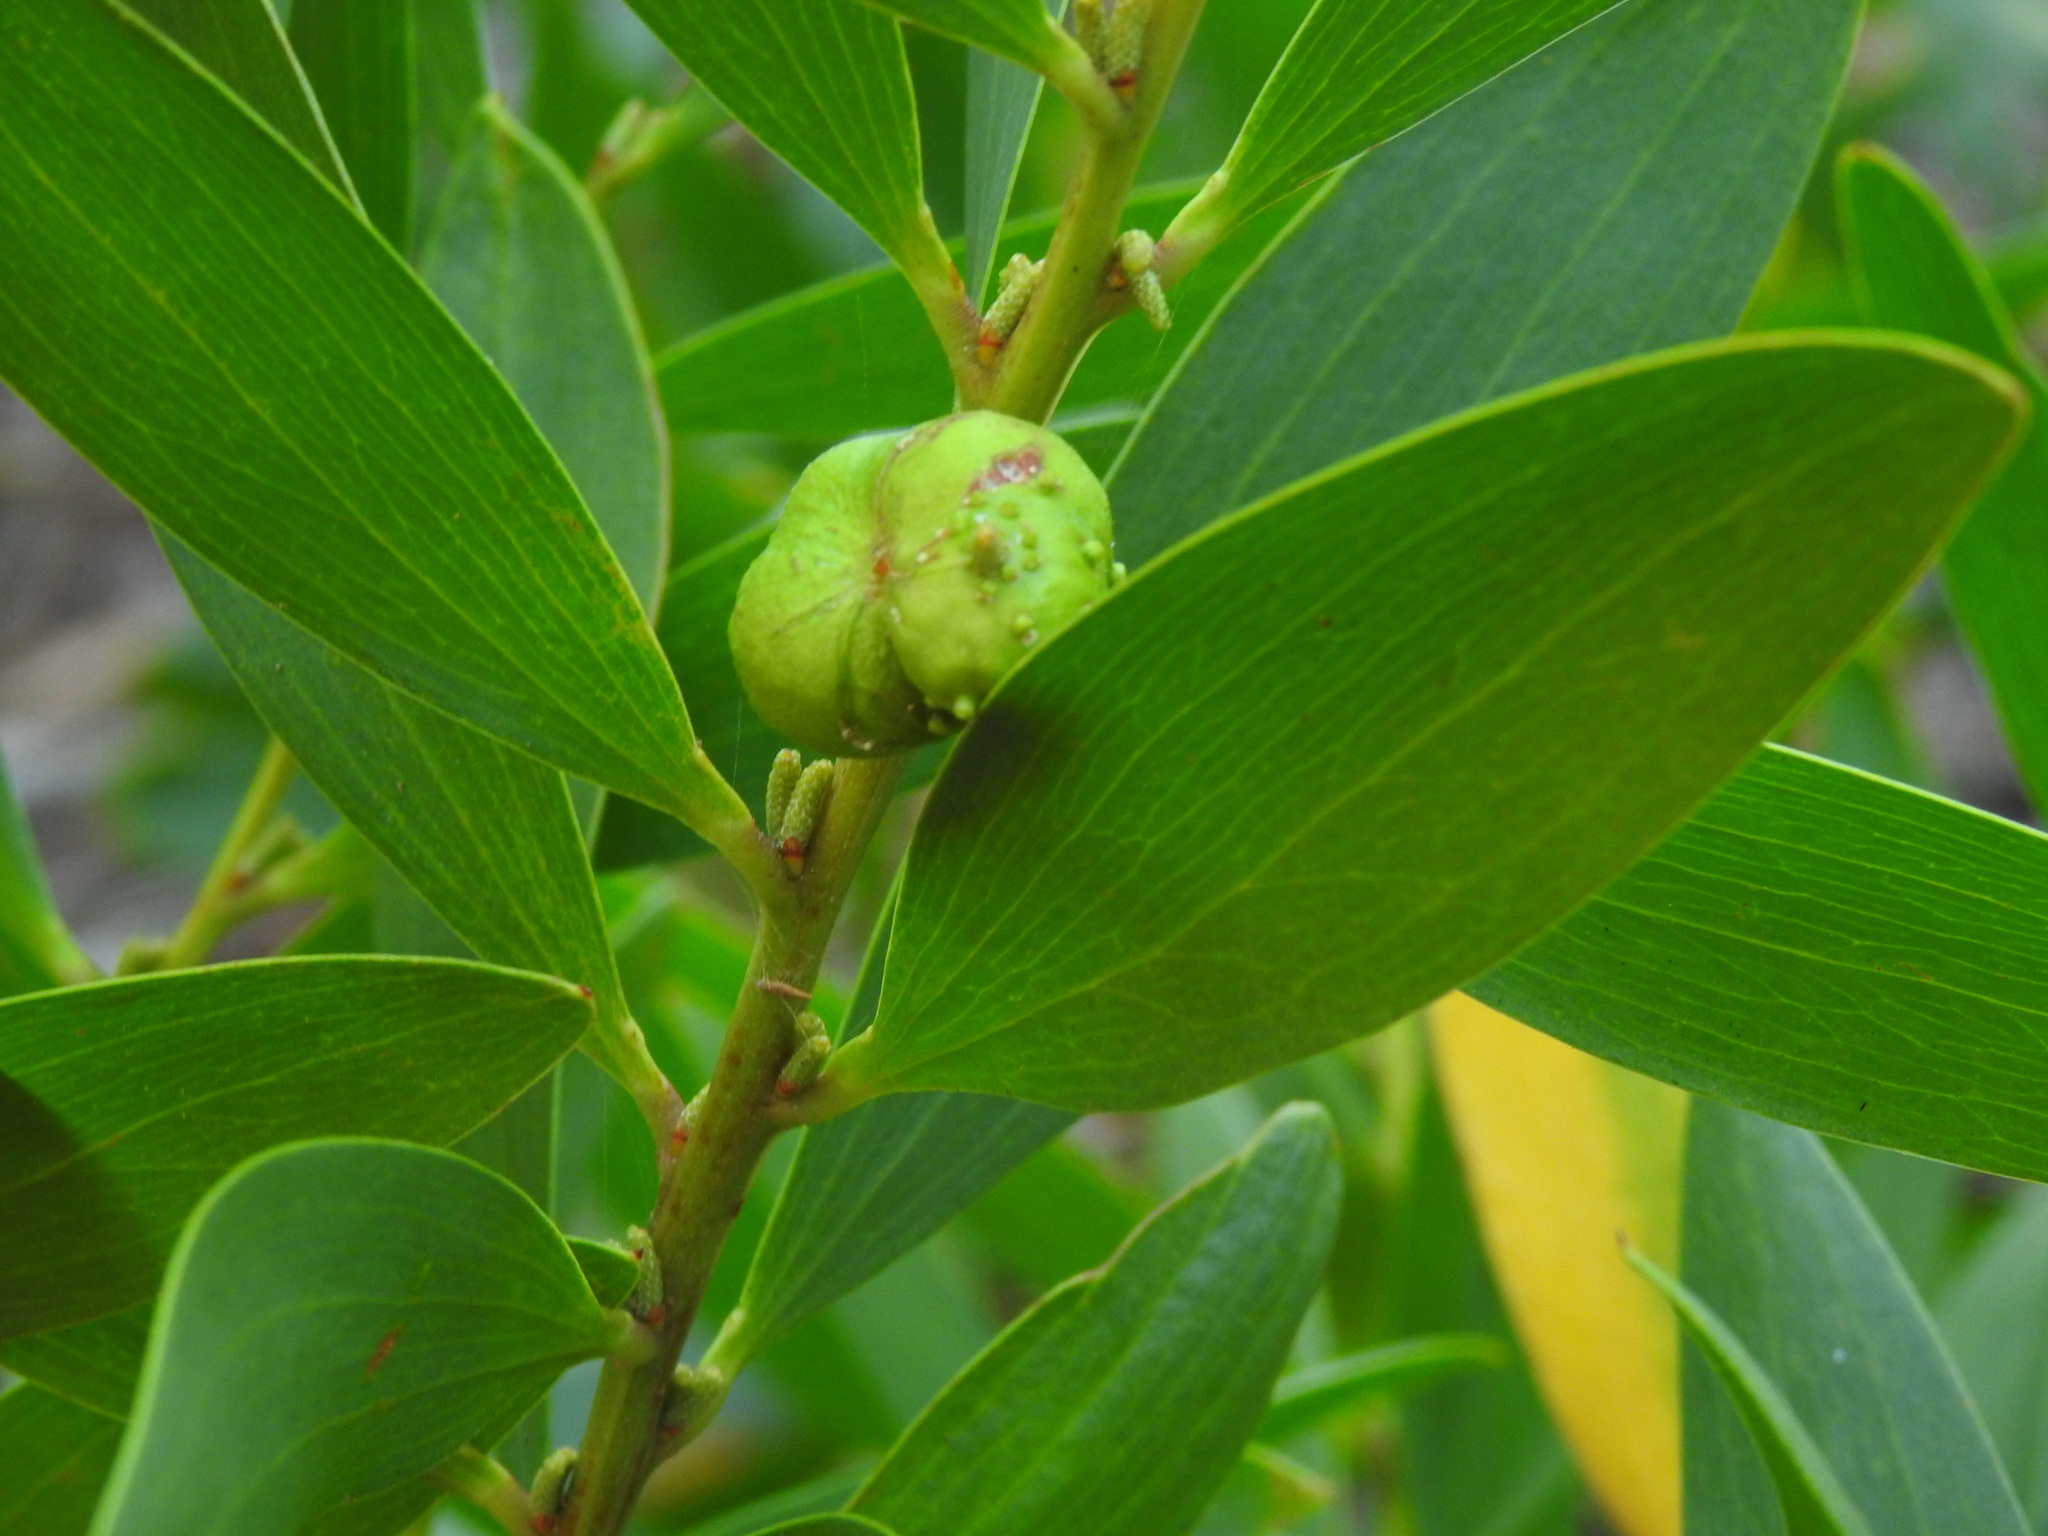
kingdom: Animalia
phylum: Arthropoda
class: Insecta
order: Hymenoptera
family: Pteromalidae
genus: Trichilogaster
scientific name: Trichilogaster acaciaelongifoliae
